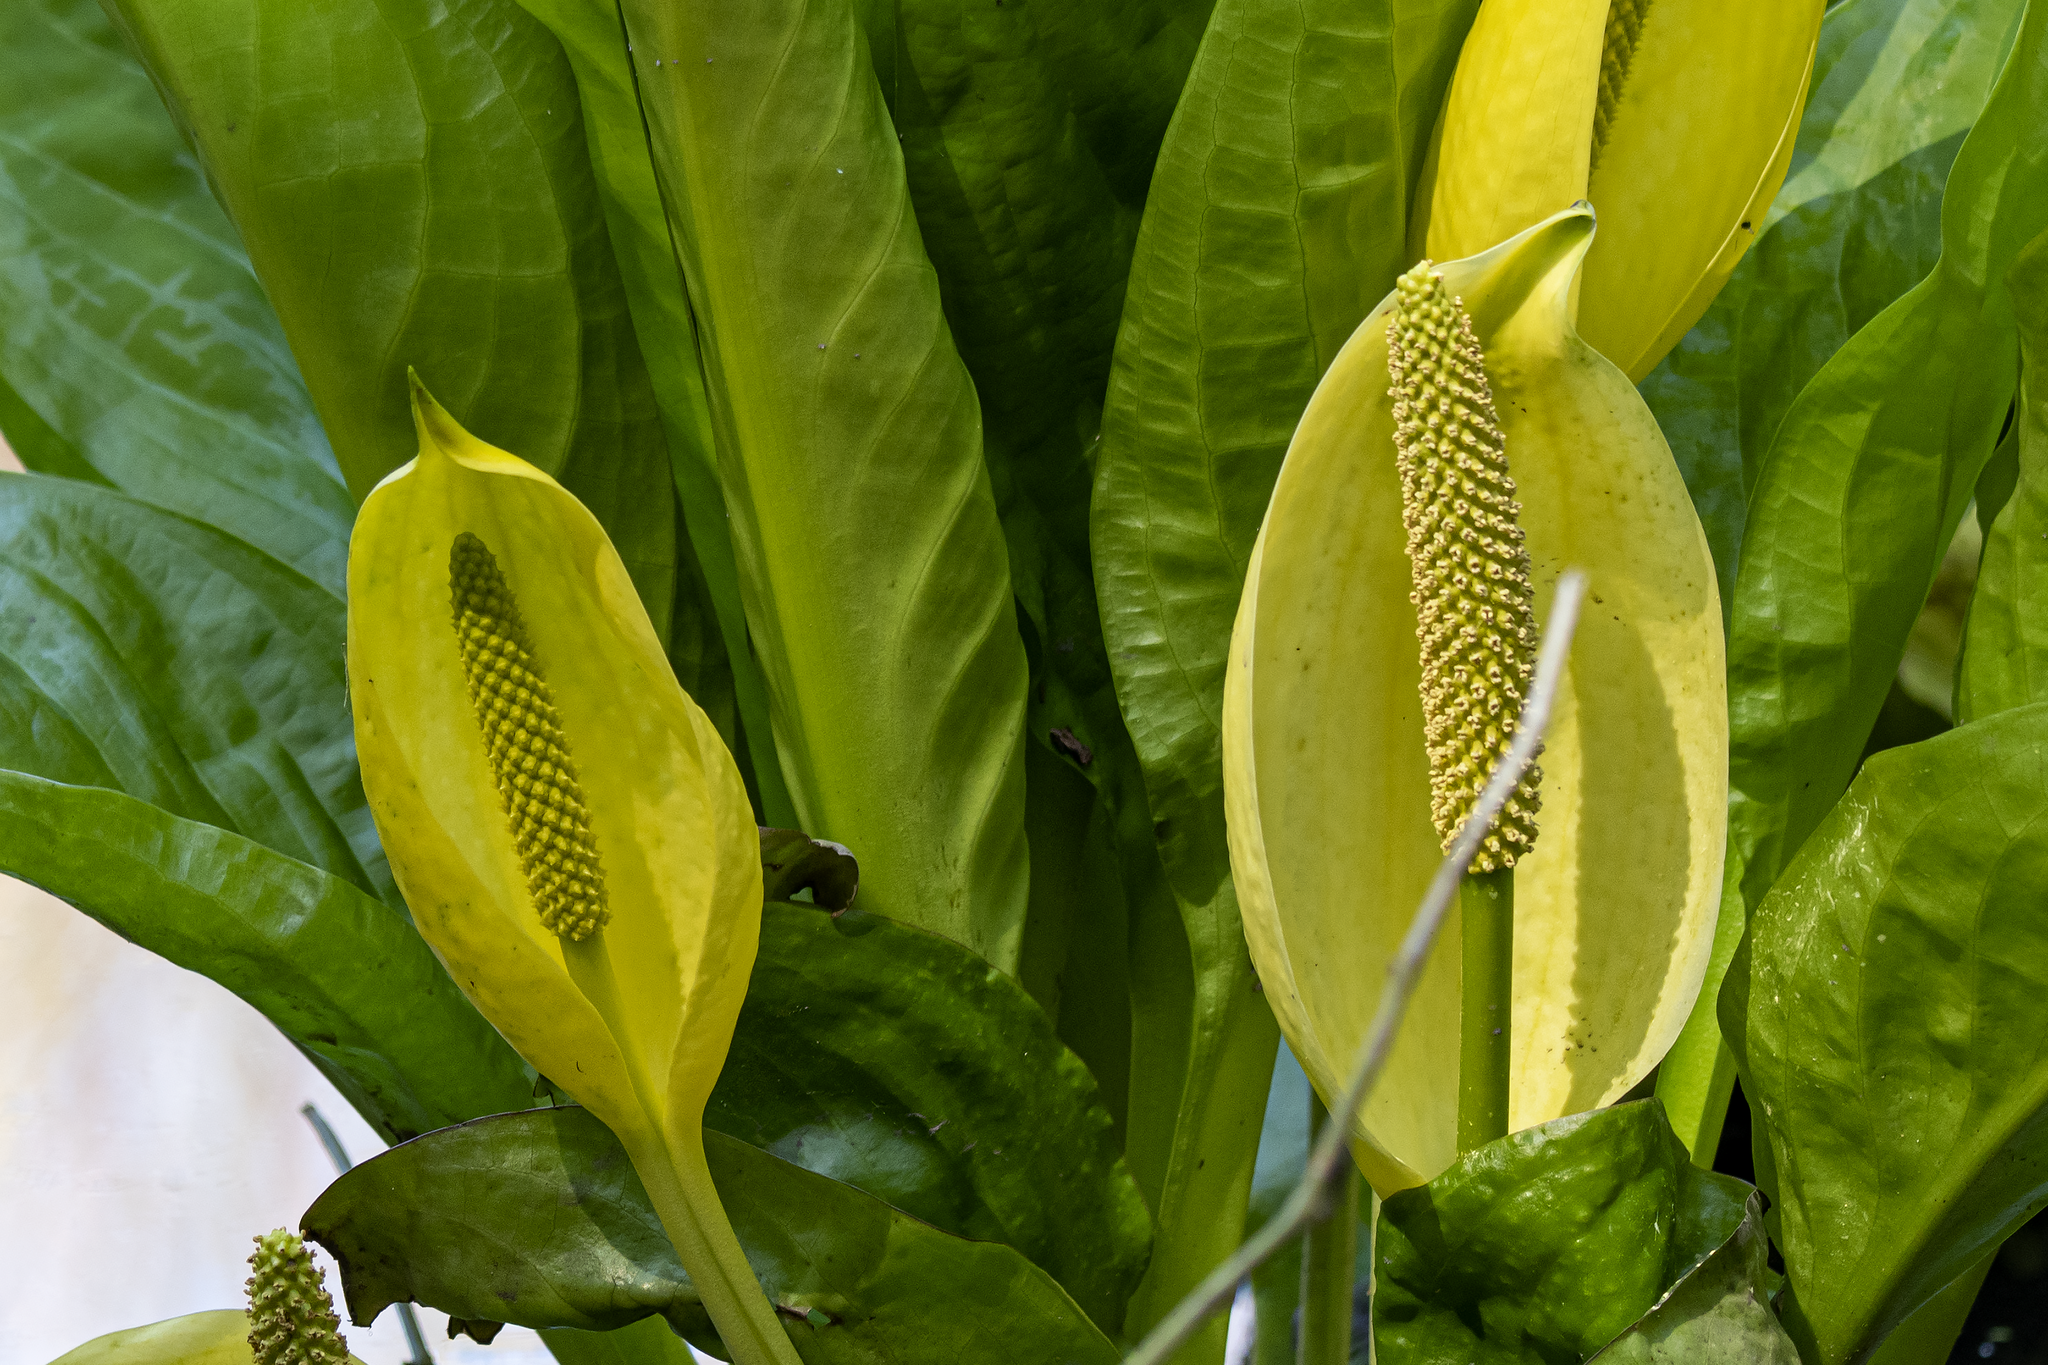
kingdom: Plantae
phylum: Tracheophyta
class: Liliopsida
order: Alismatales
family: Araceae
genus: Lysichiton
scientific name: Lysichiton americanus
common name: American skunk cabbage
